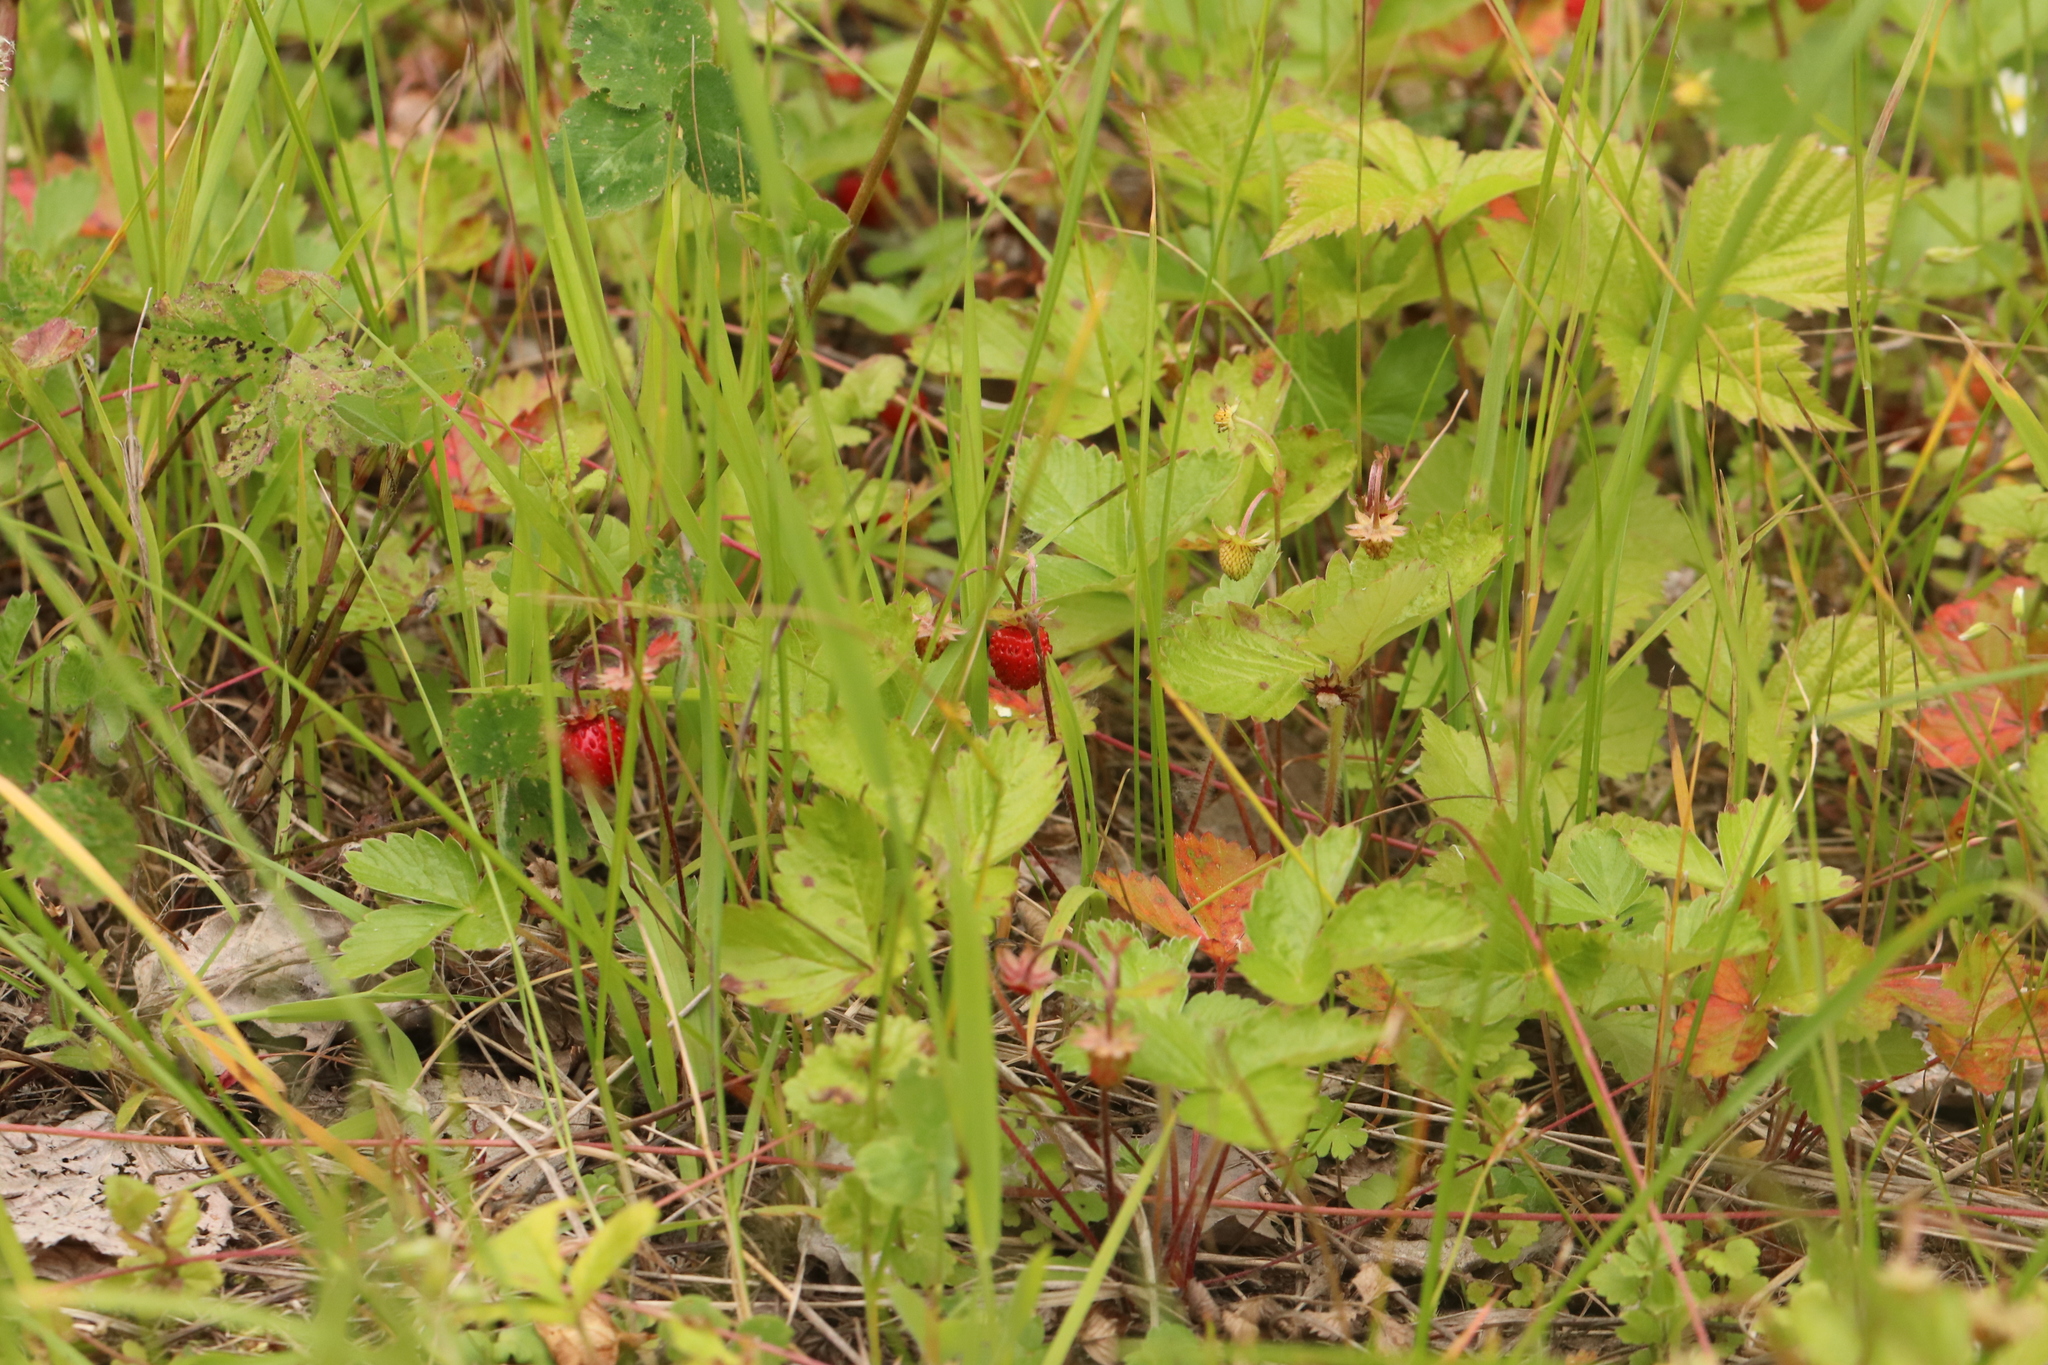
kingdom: Plantae
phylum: Tracheophyta
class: Magnoliopsida
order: Rosales
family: Rosaceae
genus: Fragaria
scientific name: Fragaria vesca
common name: Wild strawberry
